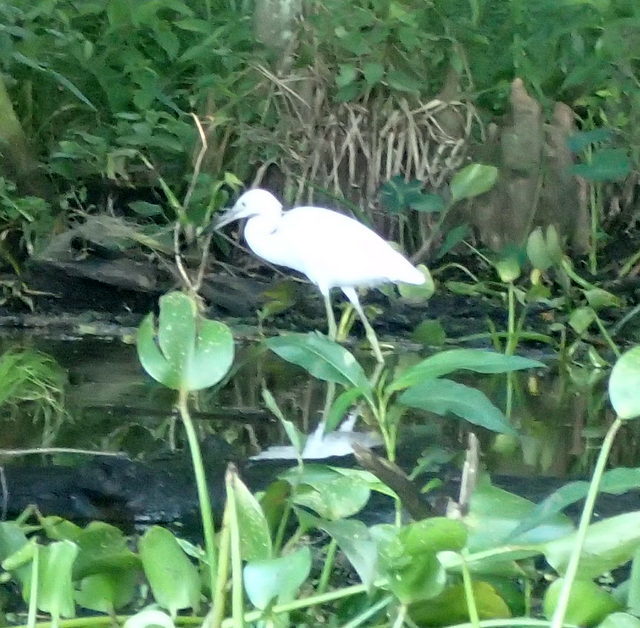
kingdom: Animalia
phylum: Chordata
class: Aves
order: Pelecaniformes
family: Ardeidae
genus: Egretta
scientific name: Egretta caerulea
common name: Little blue heron
